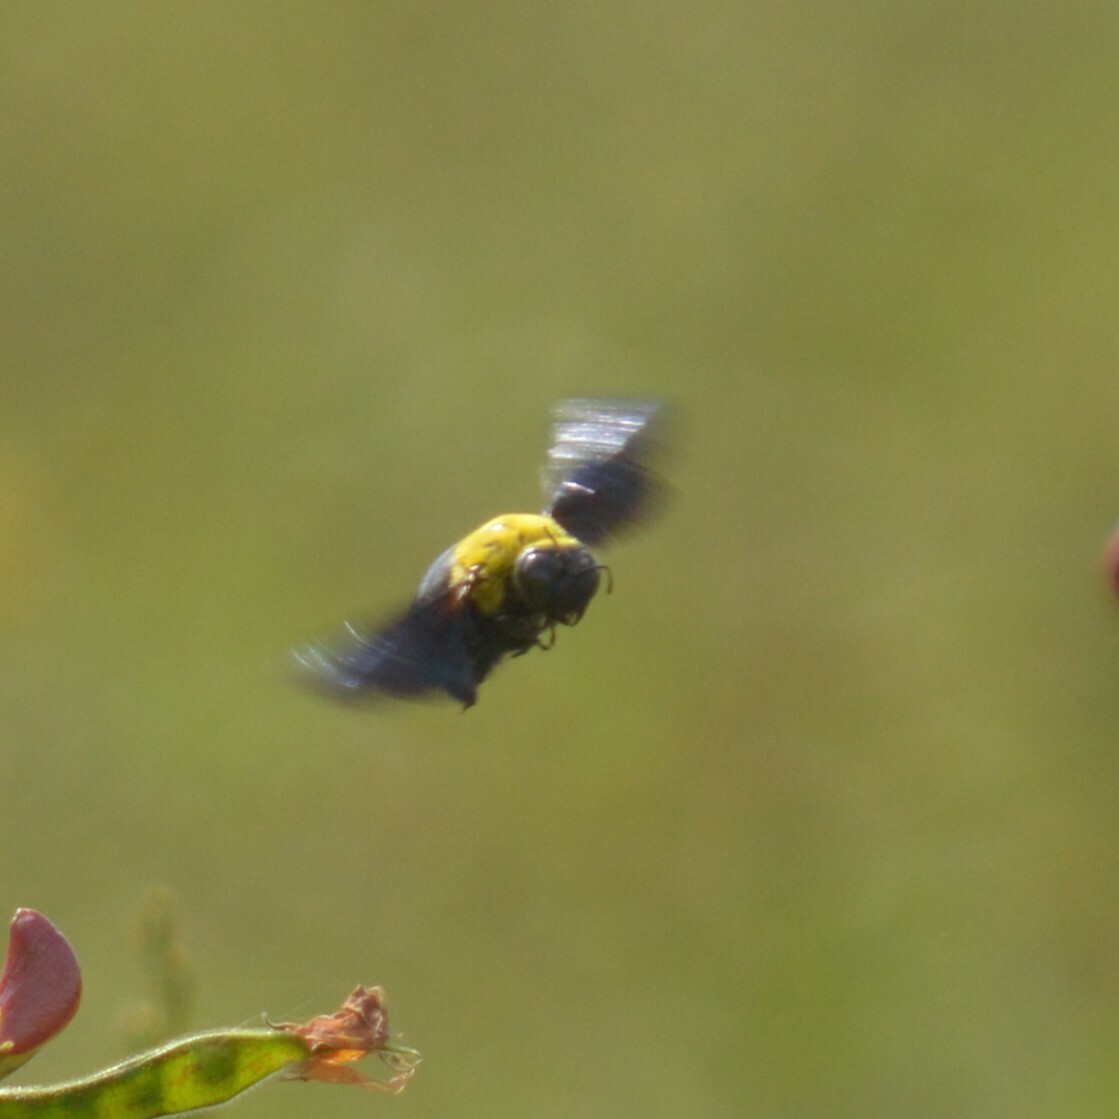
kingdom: Animalia
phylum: Arthropoda
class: Insecta
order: Hymenoptera
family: Apidae
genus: Xylocopa
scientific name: Xylocopa ruficornis
